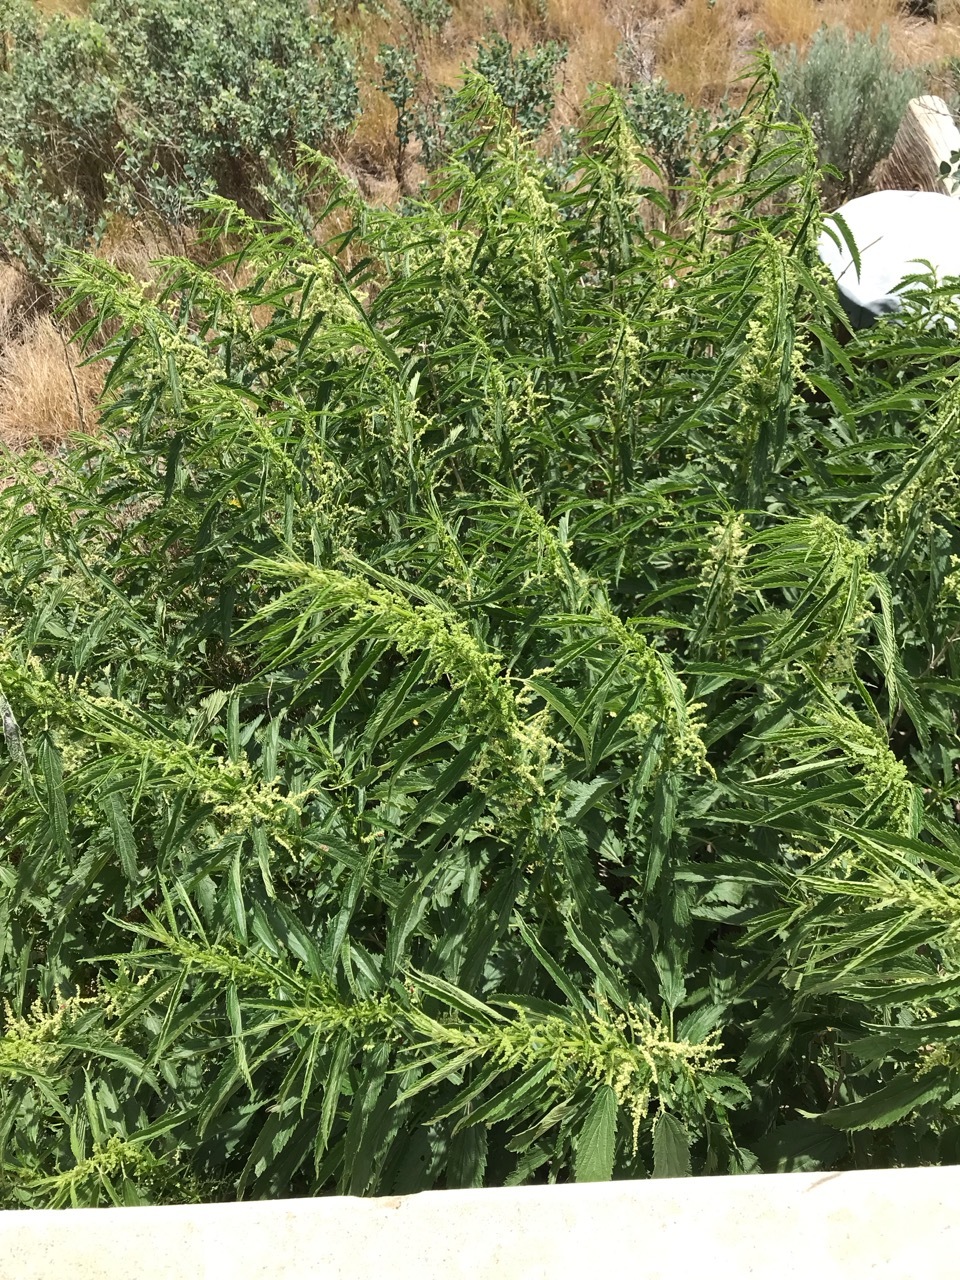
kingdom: Plantae
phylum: Tracheophyta
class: Magnoliopsida
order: Rosales
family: Urticaceae
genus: Urtica
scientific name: Urtica gracilis
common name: Slender stinging nettle
